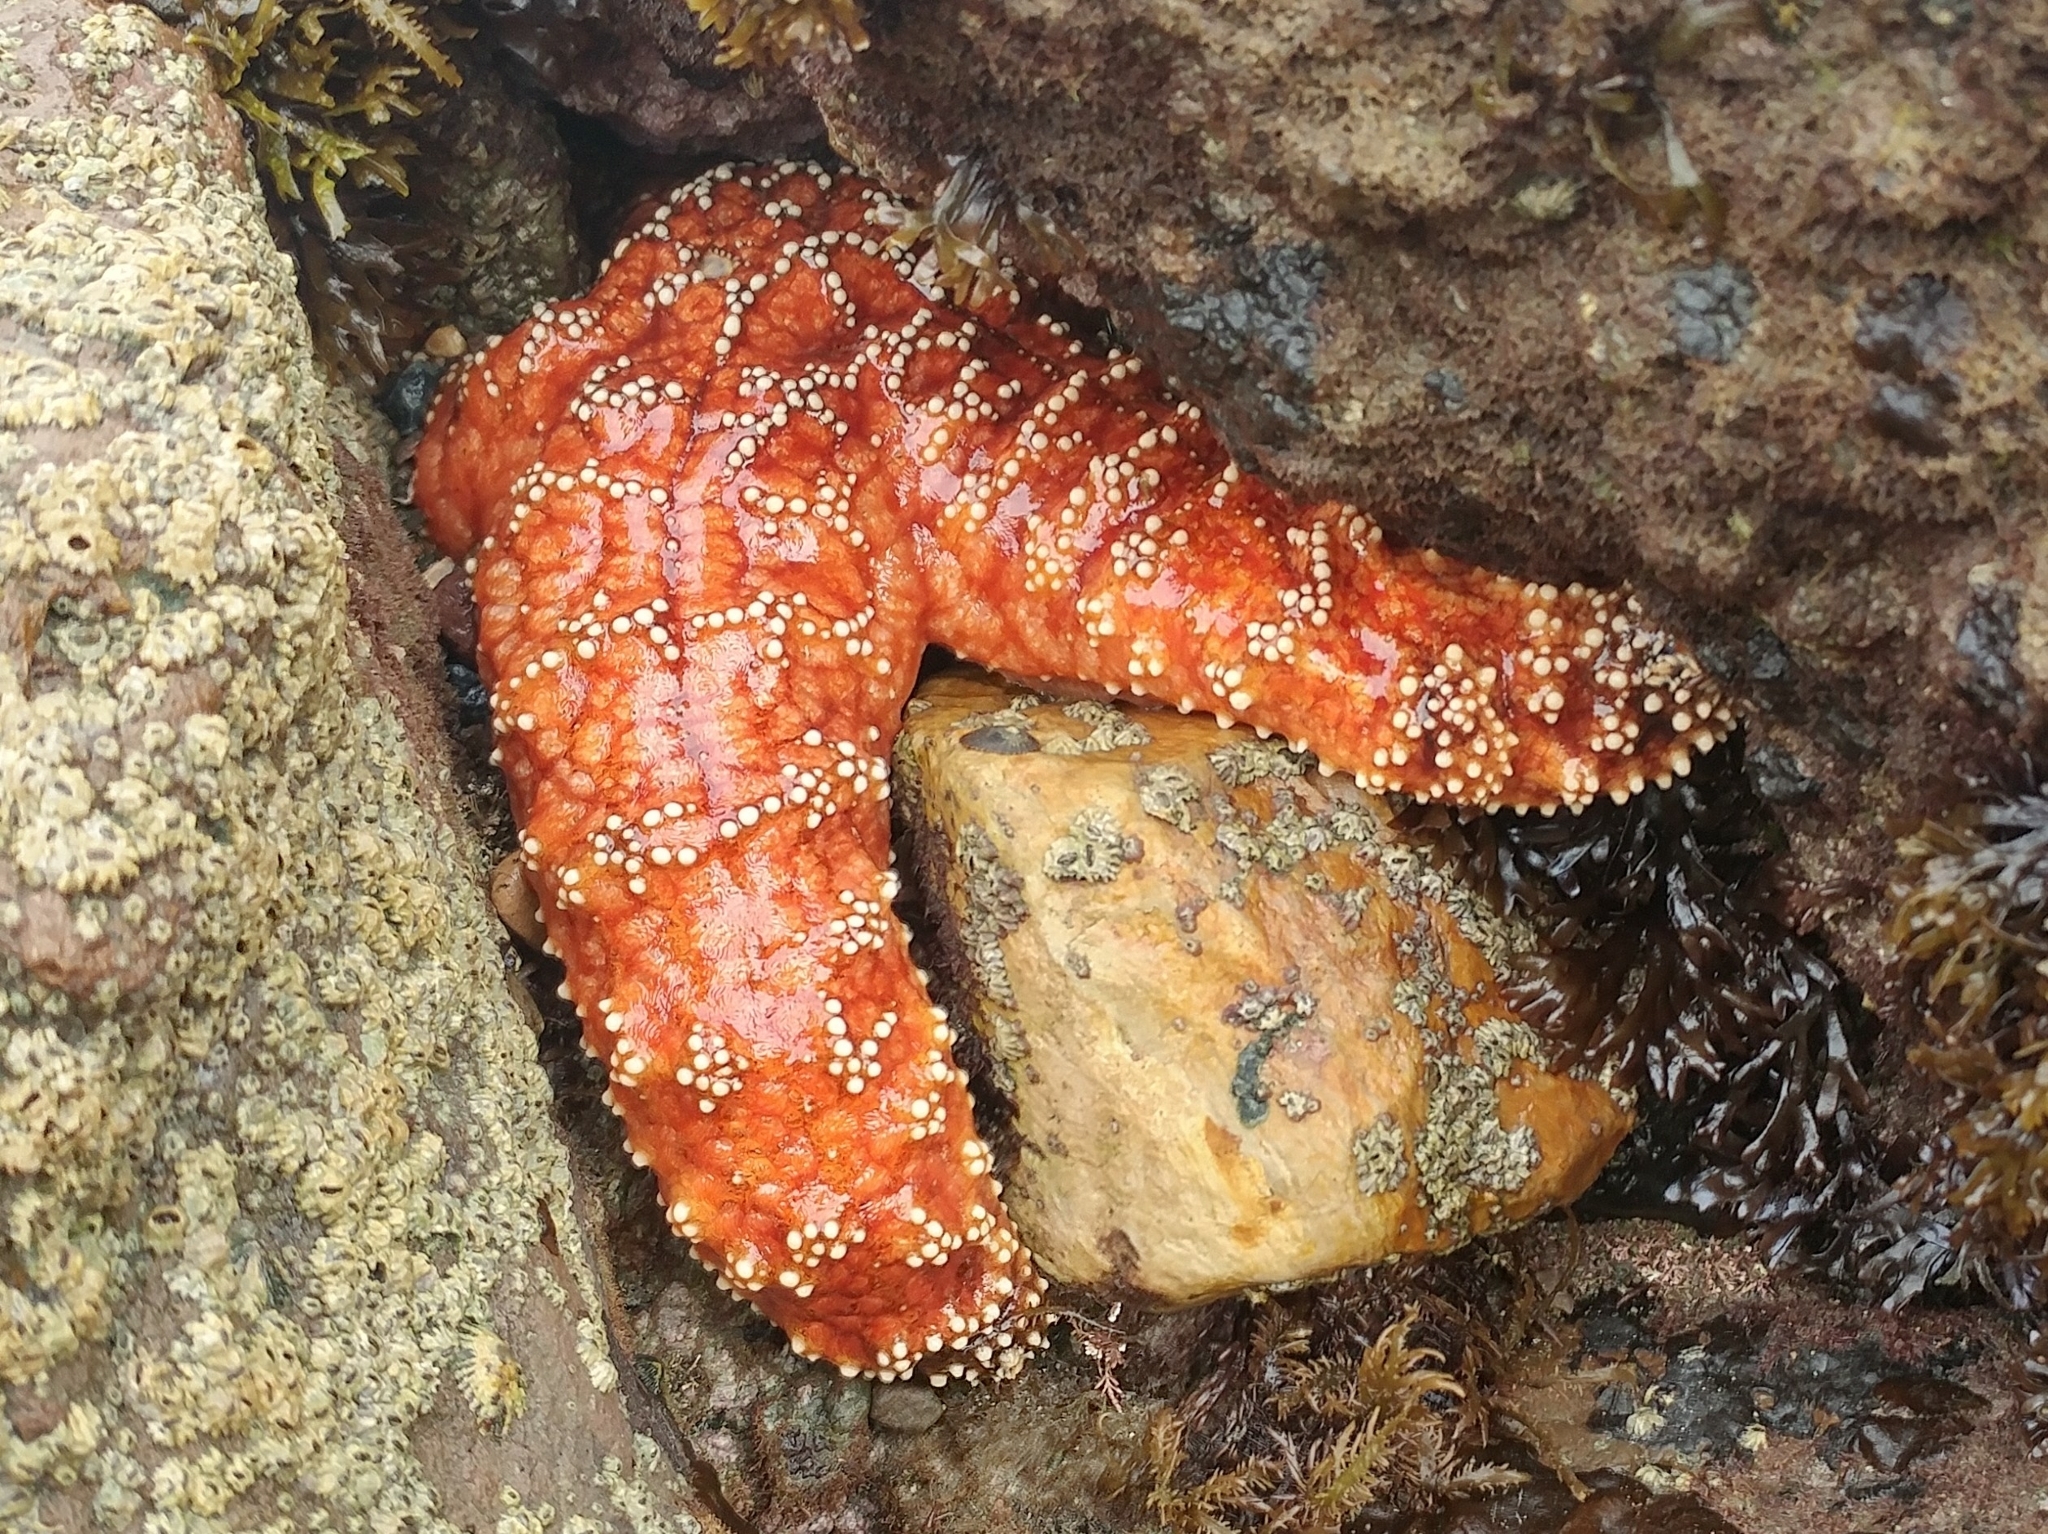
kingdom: Animalia
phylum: Echinodermata
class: Asteroidea
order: Forcipulatida
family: Asteriidae
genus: Pisaster
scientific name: Pisaster ochraceus
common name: Ochre stars
